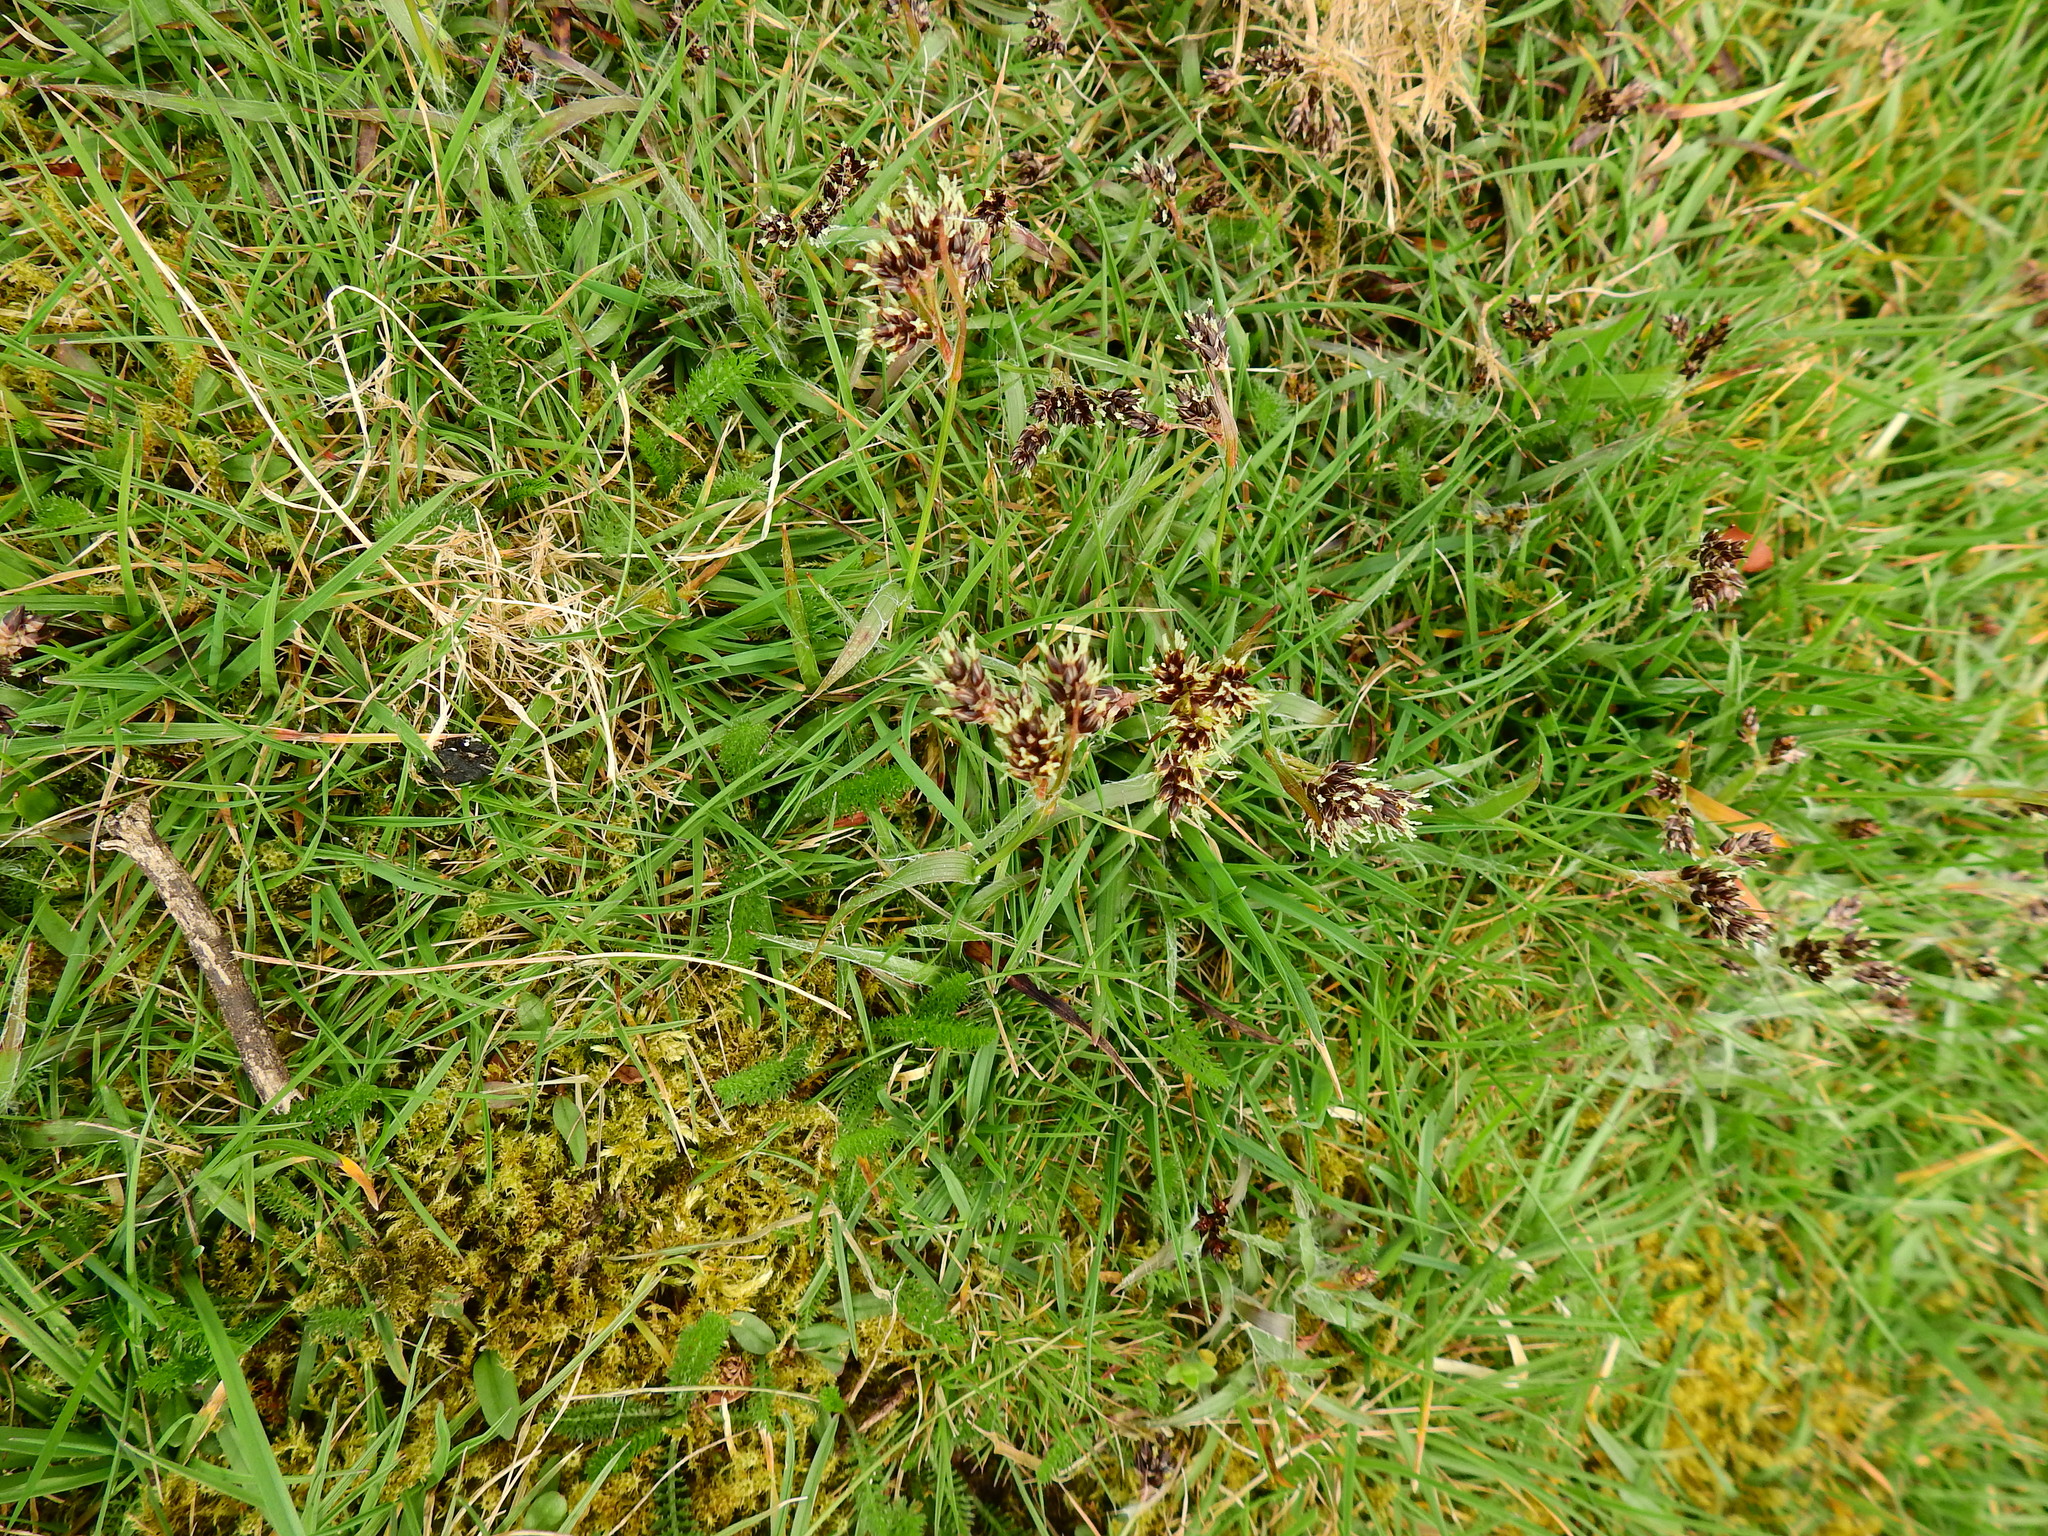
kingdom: Plantae
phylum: Tracheophyta
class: Liliopsida
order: Poales
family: Juncaceae
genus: Luzula
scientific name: Luzula campestris
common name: Field wood-rush
